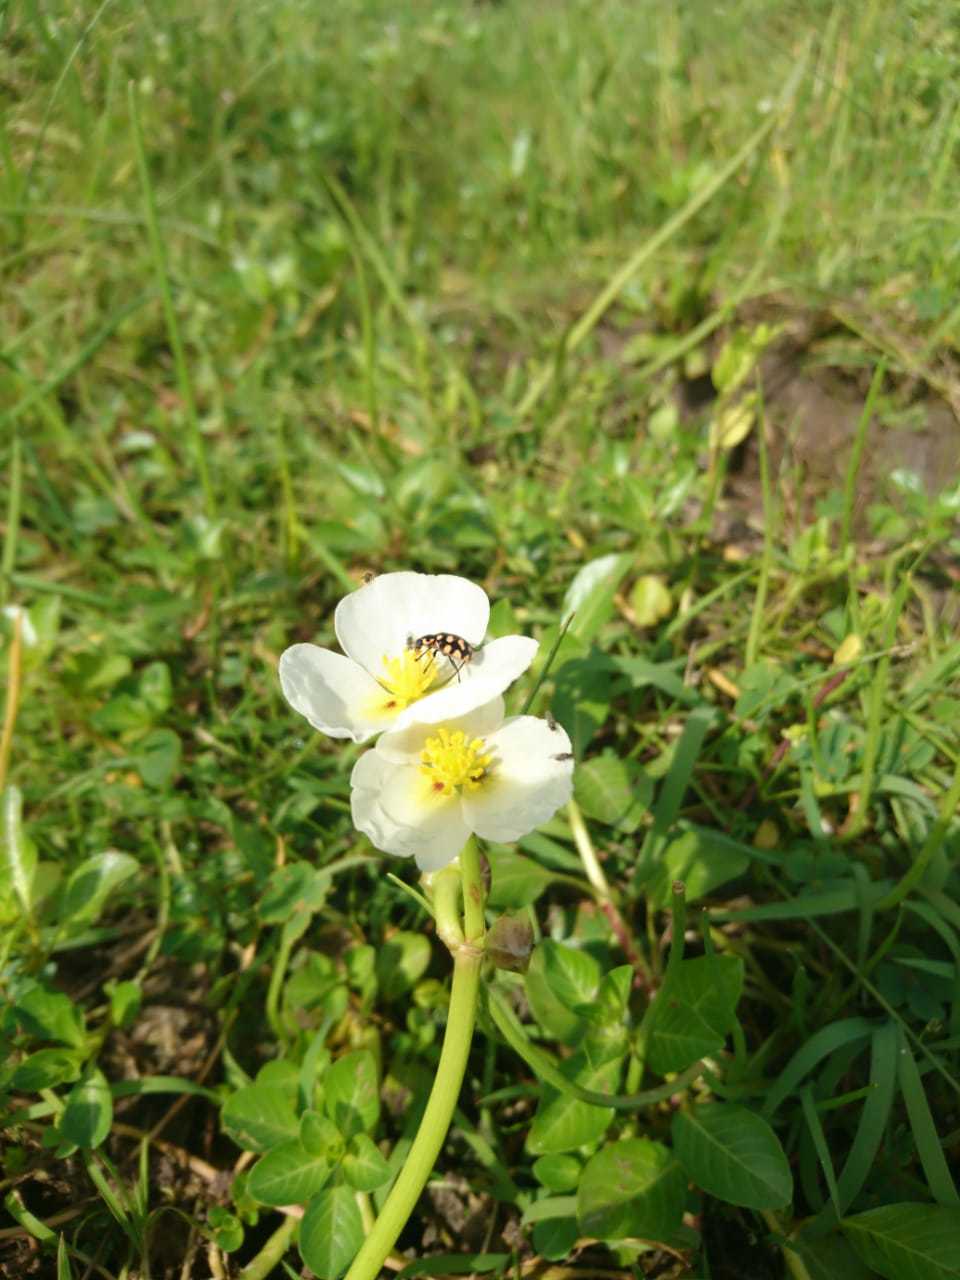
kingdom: Plantae
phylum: Tracheophyta
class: Liliopsida
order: Alismatales
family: Alismataceae
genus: Sagittaria
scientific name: Sagittaria montevidensis
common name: Giant arrowhead
